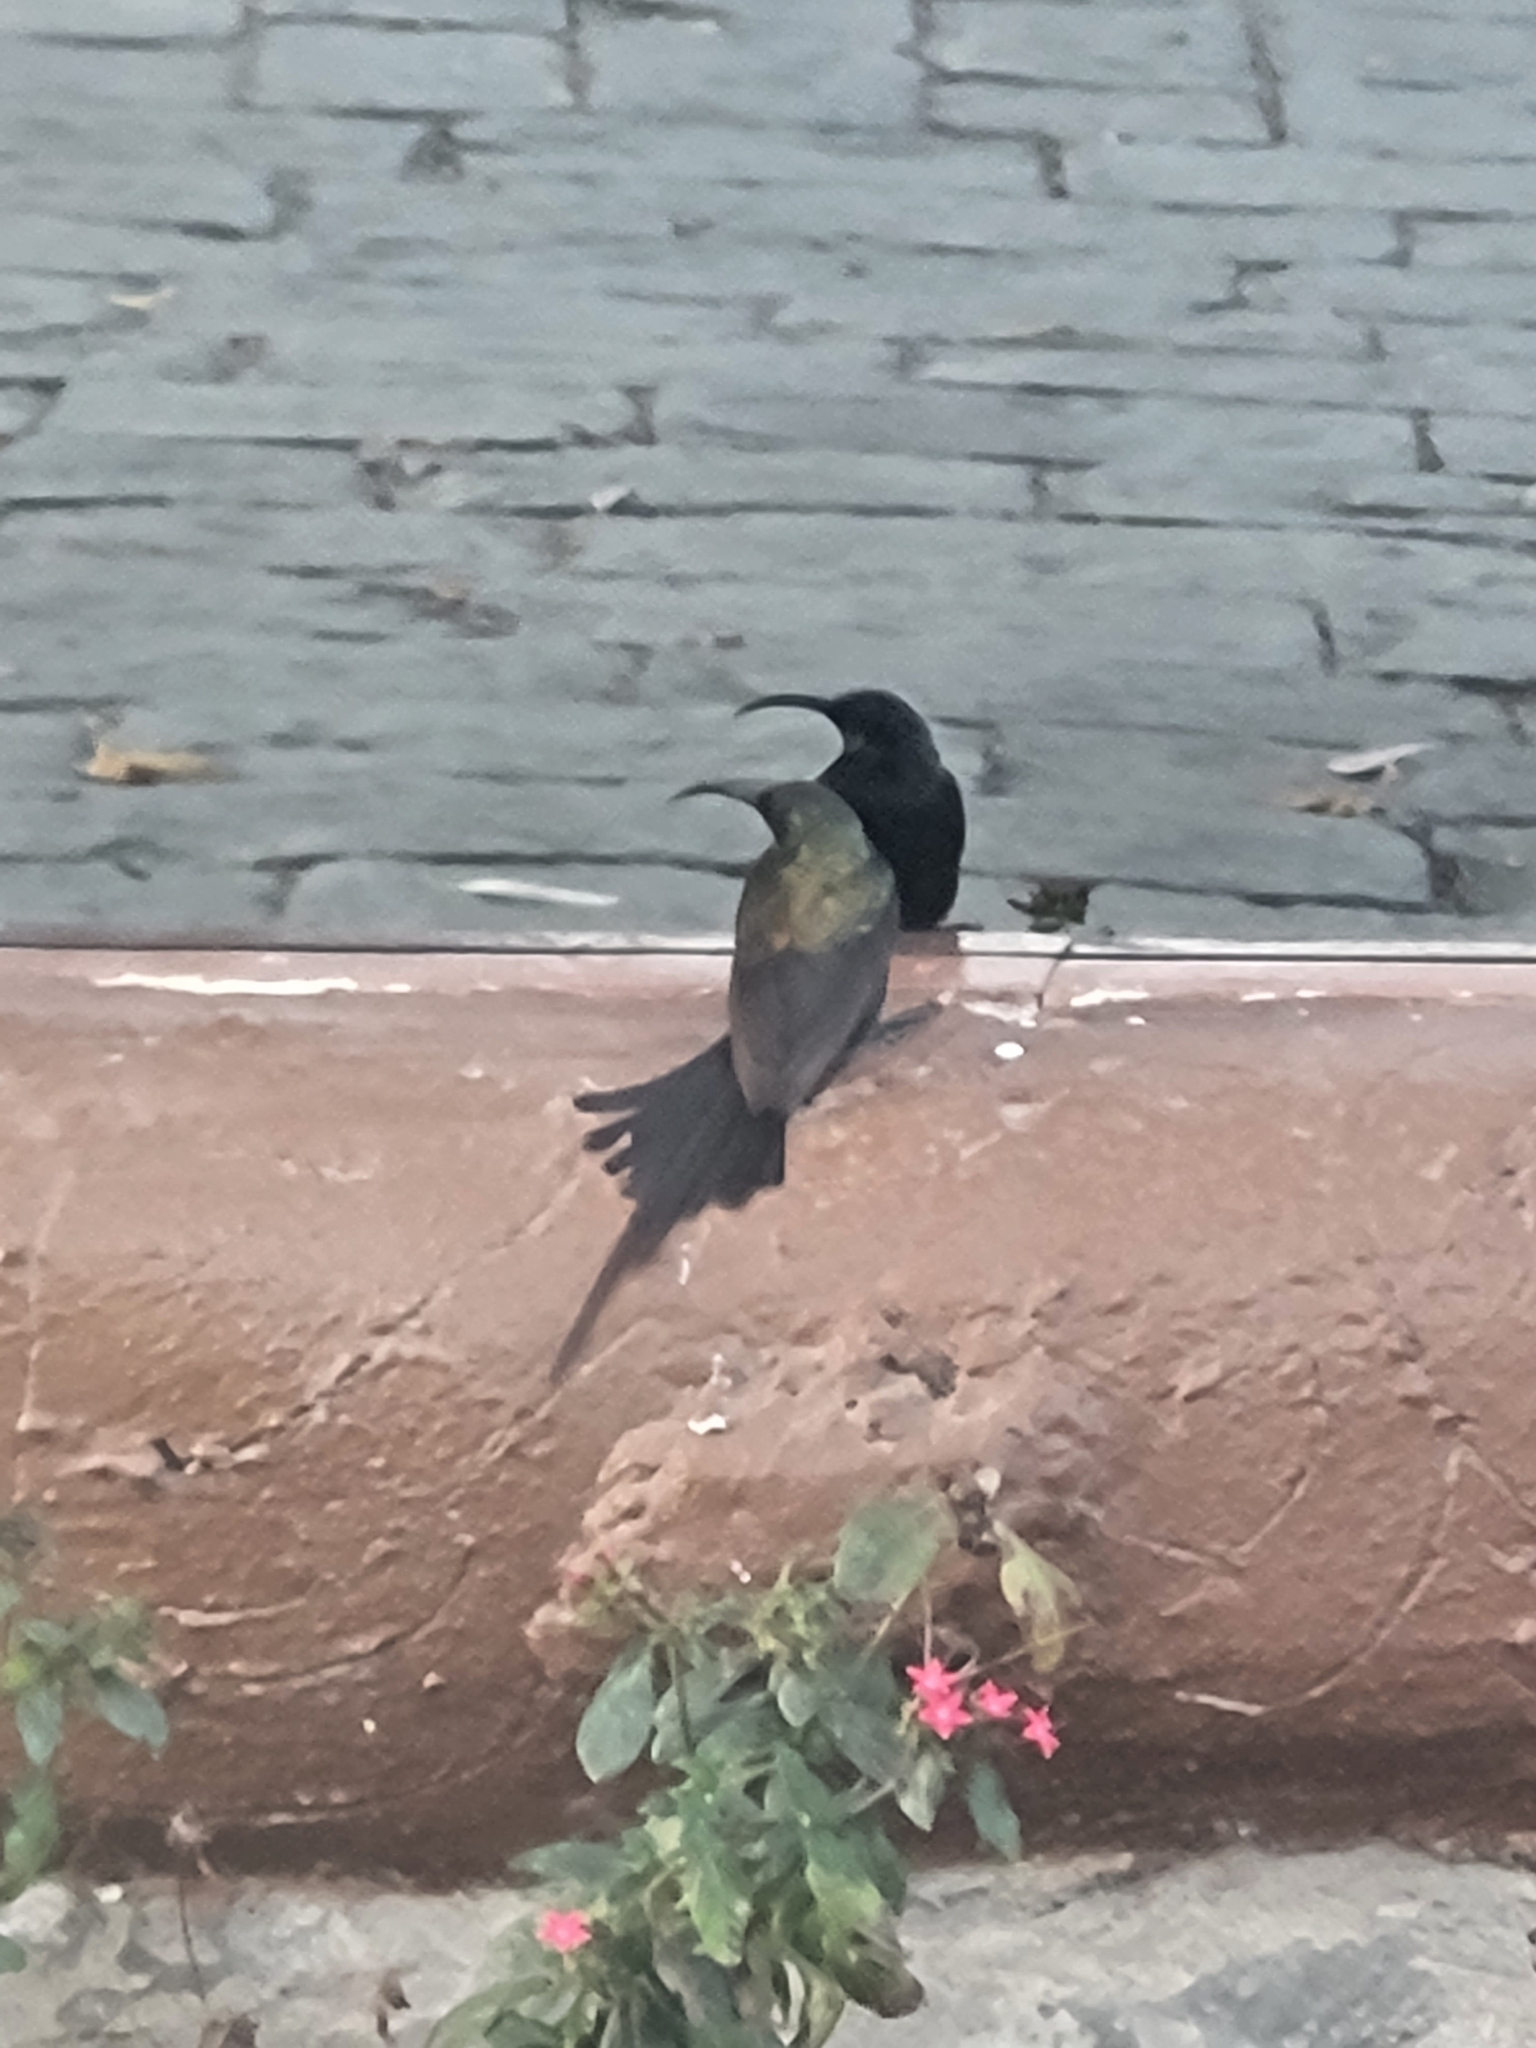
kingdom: Animalia
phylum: Chordata
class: Aves
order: Passeriformes
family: Nectariniidae
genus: Nectarinia
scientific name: Nectarinia kilimensis
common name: Bronzy sunbird
